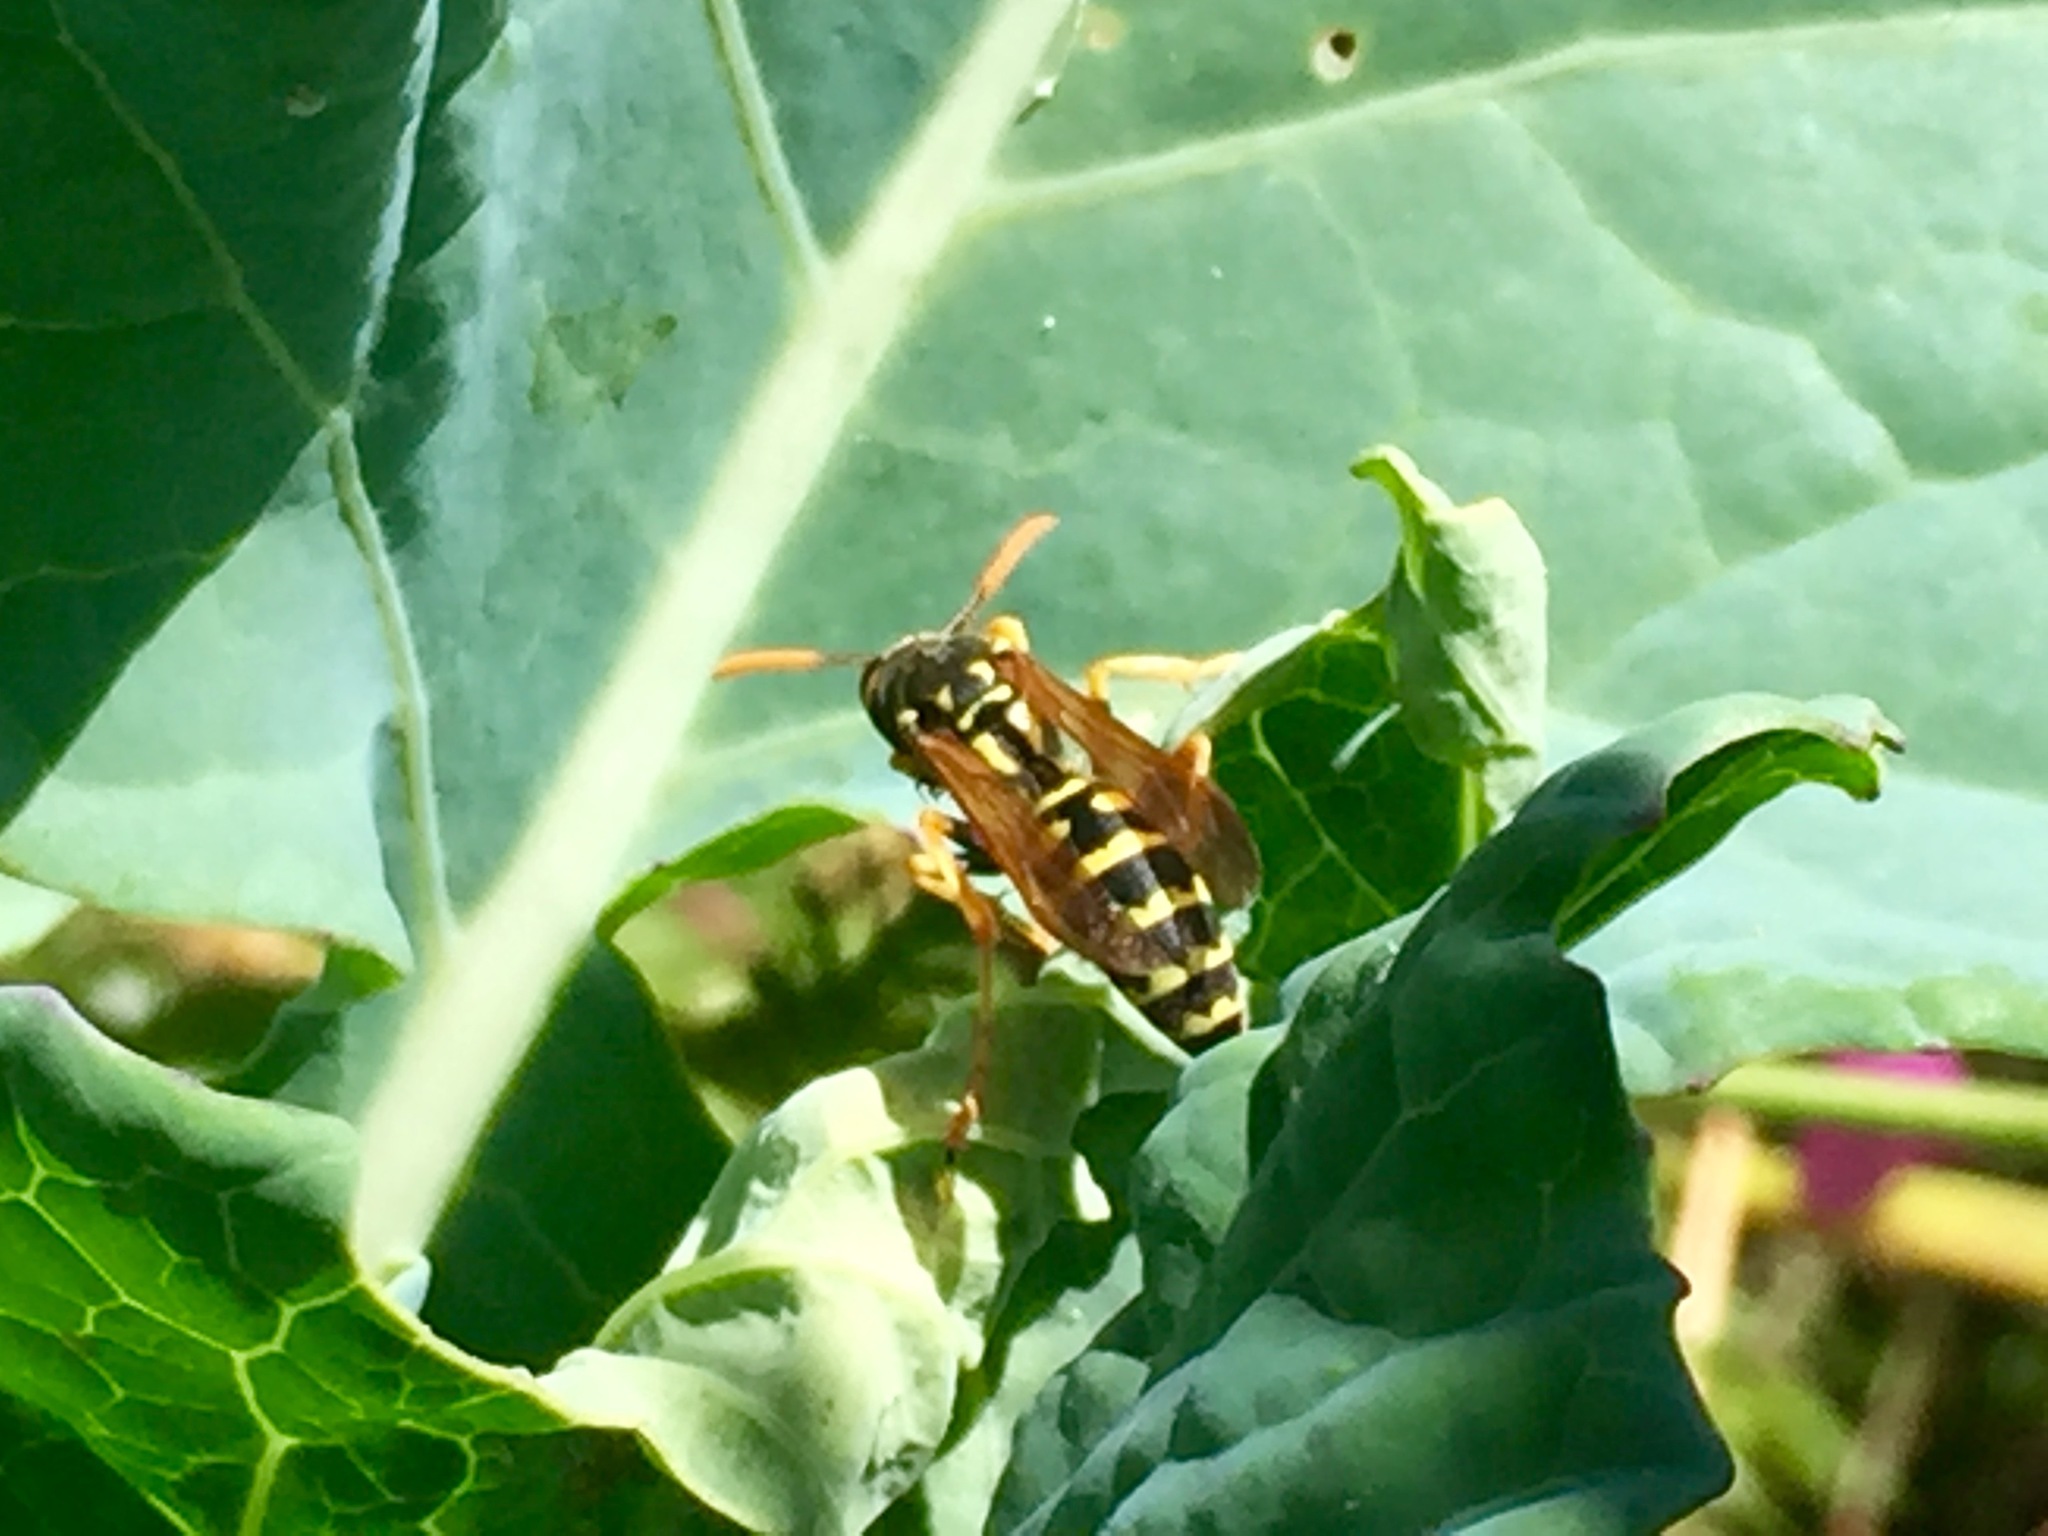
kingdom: Animalia
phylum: Arthropoda
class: Insecta
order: Hymenoptera
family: Eumenidae
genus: Polistes
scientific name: Polistes dominula
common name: Paper wasp
